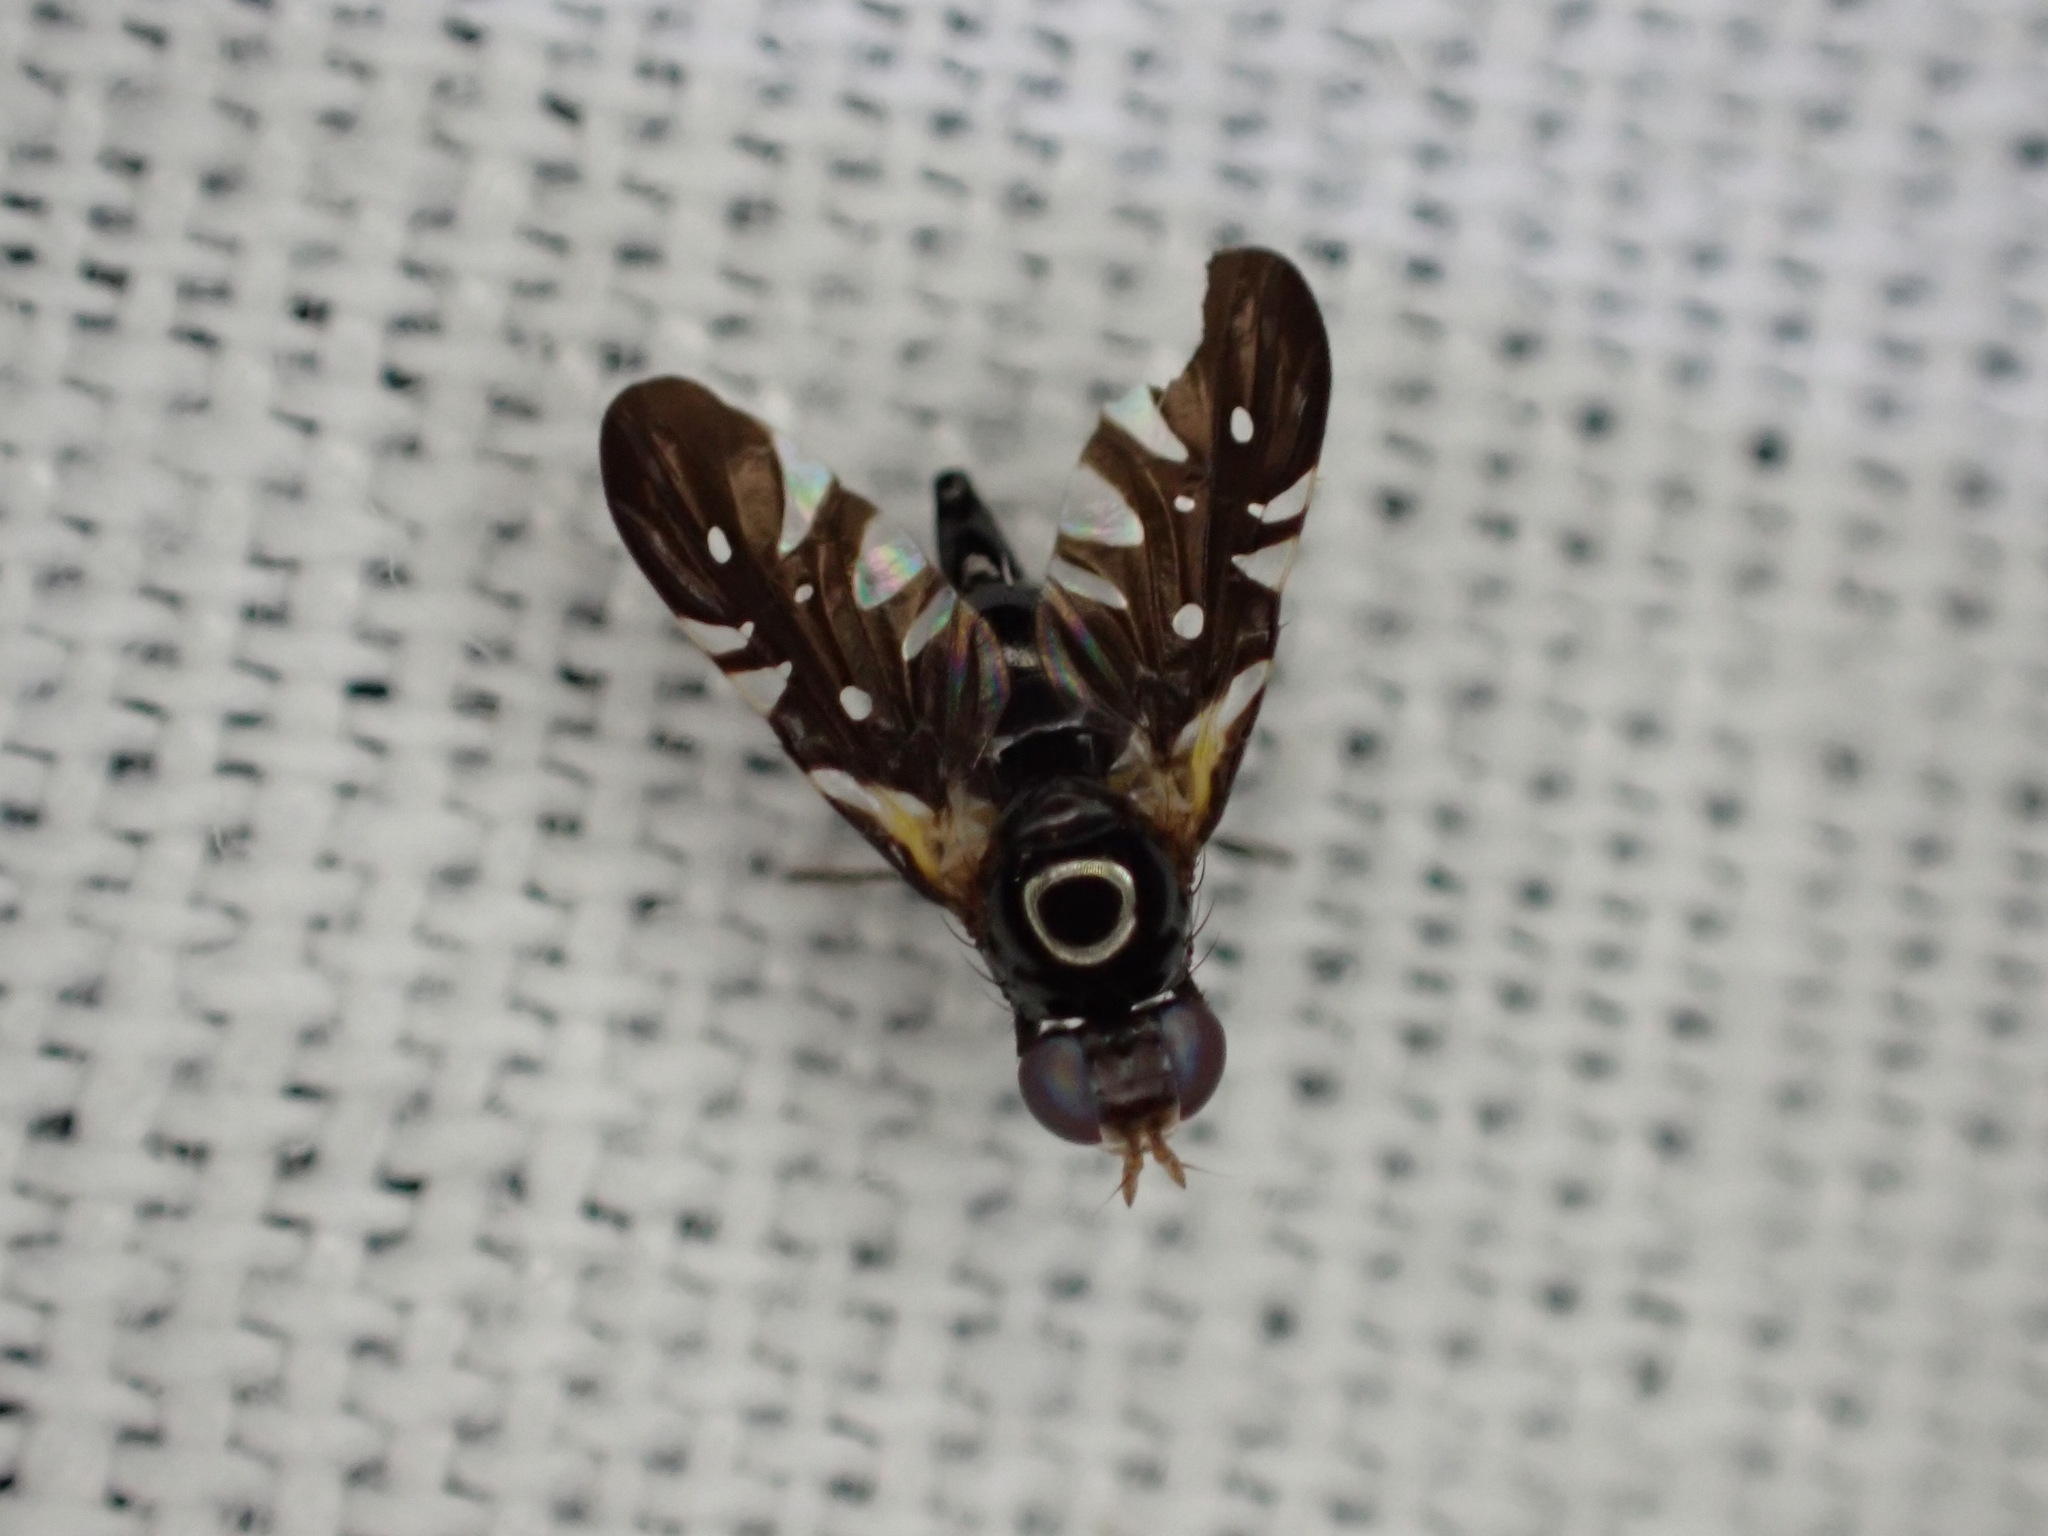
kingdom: Animalia
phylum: Arthropoda
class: Insecta
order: Diptera
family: Tephritidae
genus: Oxyaciura
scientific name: Oxyaciura tibialis
